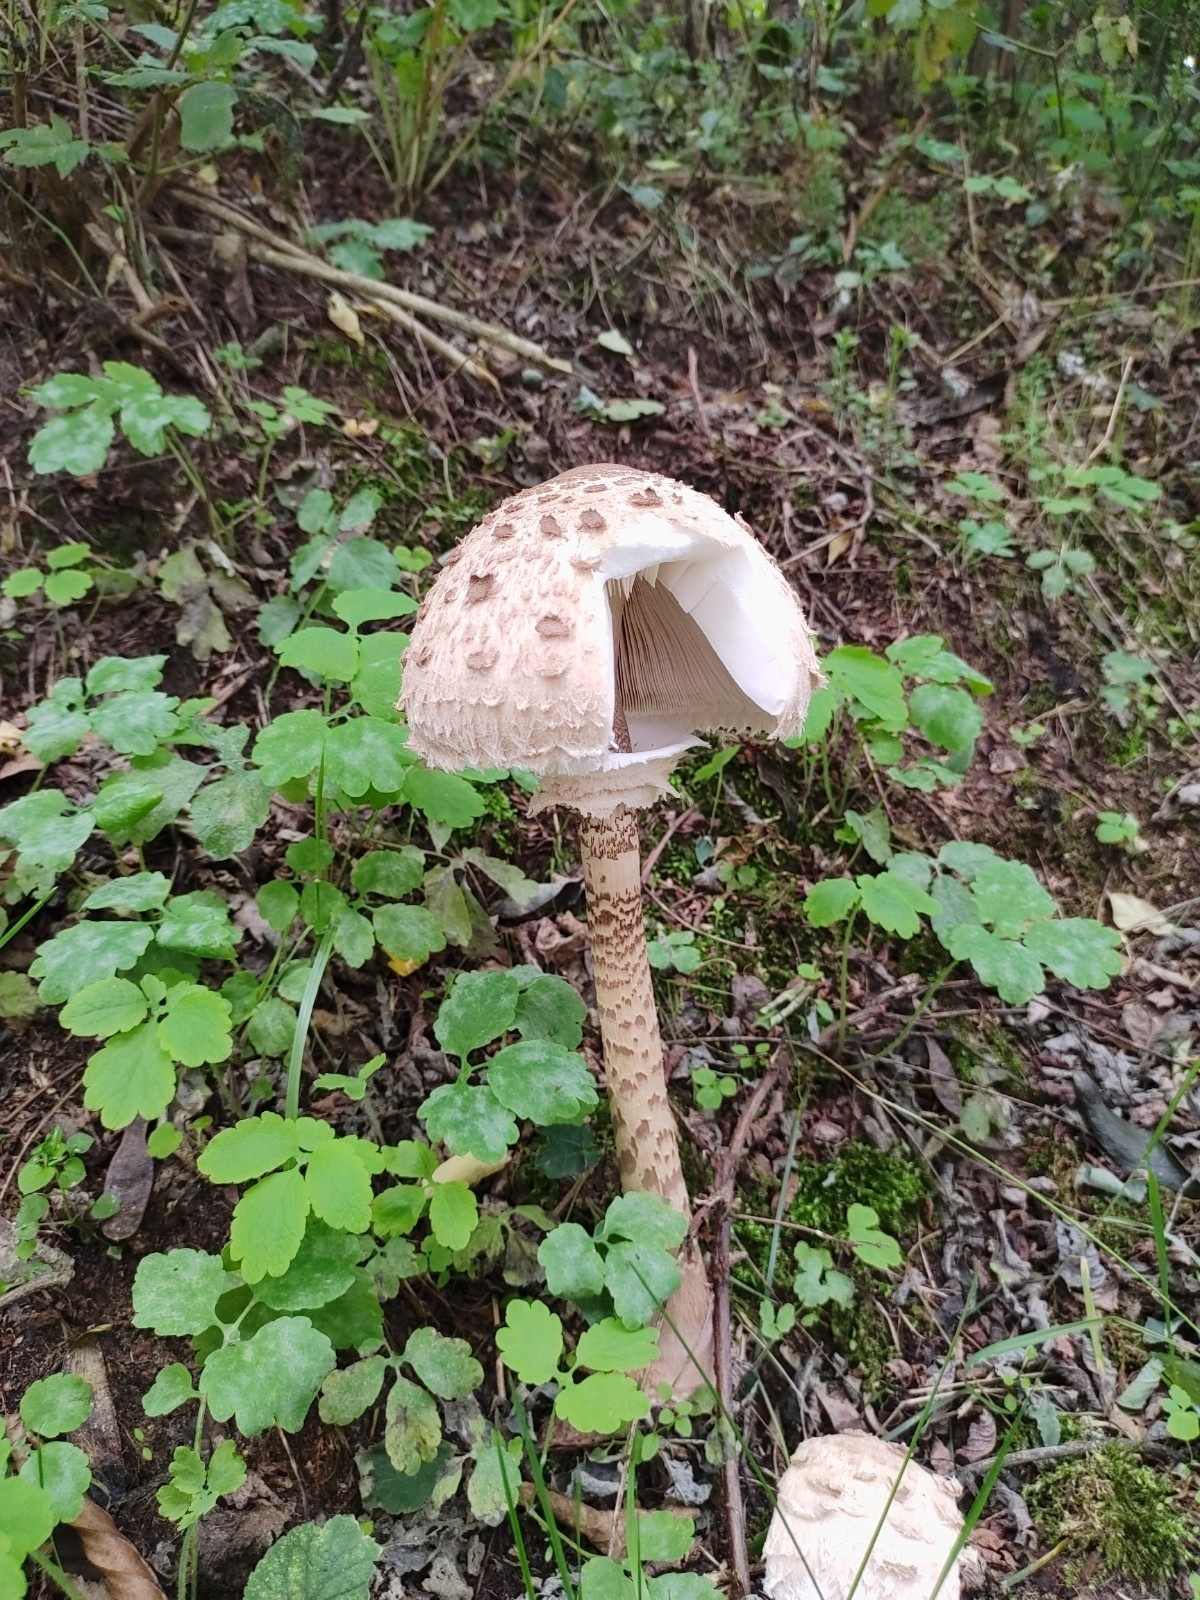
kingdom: Fungi
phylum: Basidiomycota
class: Agaricomycetes
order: Agaricales
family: Agaricaceae
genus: Macrolepiota
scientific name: Macrolepiota procera
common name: Parasol
